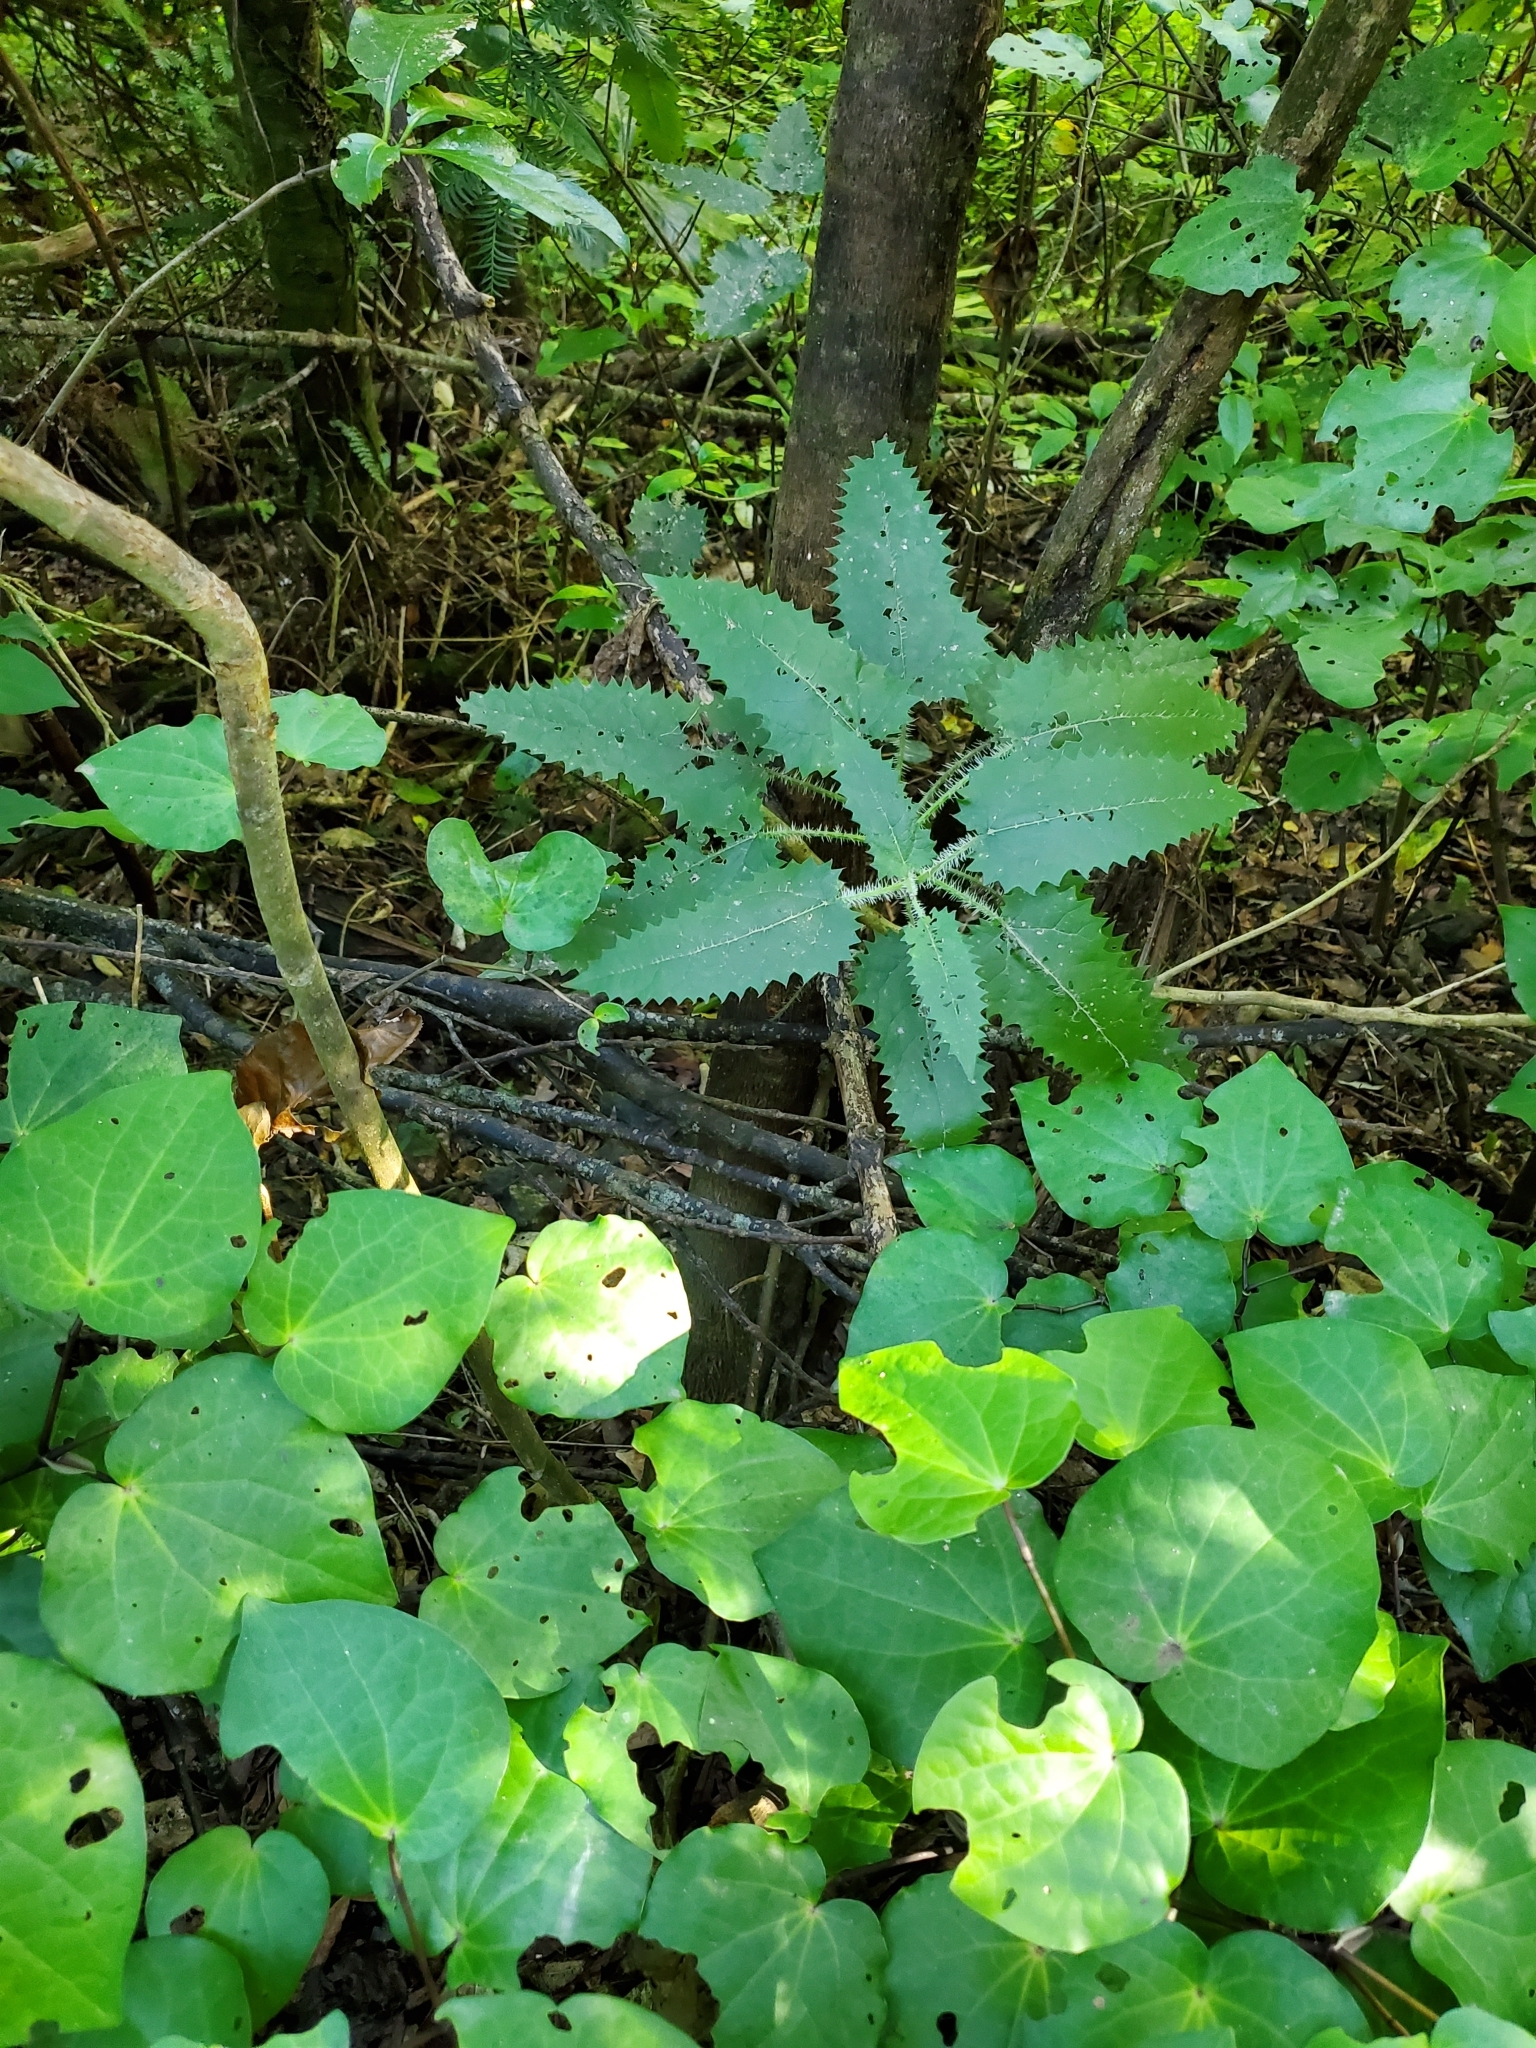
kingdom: Plantae
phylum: Tracheophyta
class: Magnoliopsida
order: Rosales
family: Urticaceae
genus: Urtica
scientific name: Urtica ferox
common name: Tree nettle
